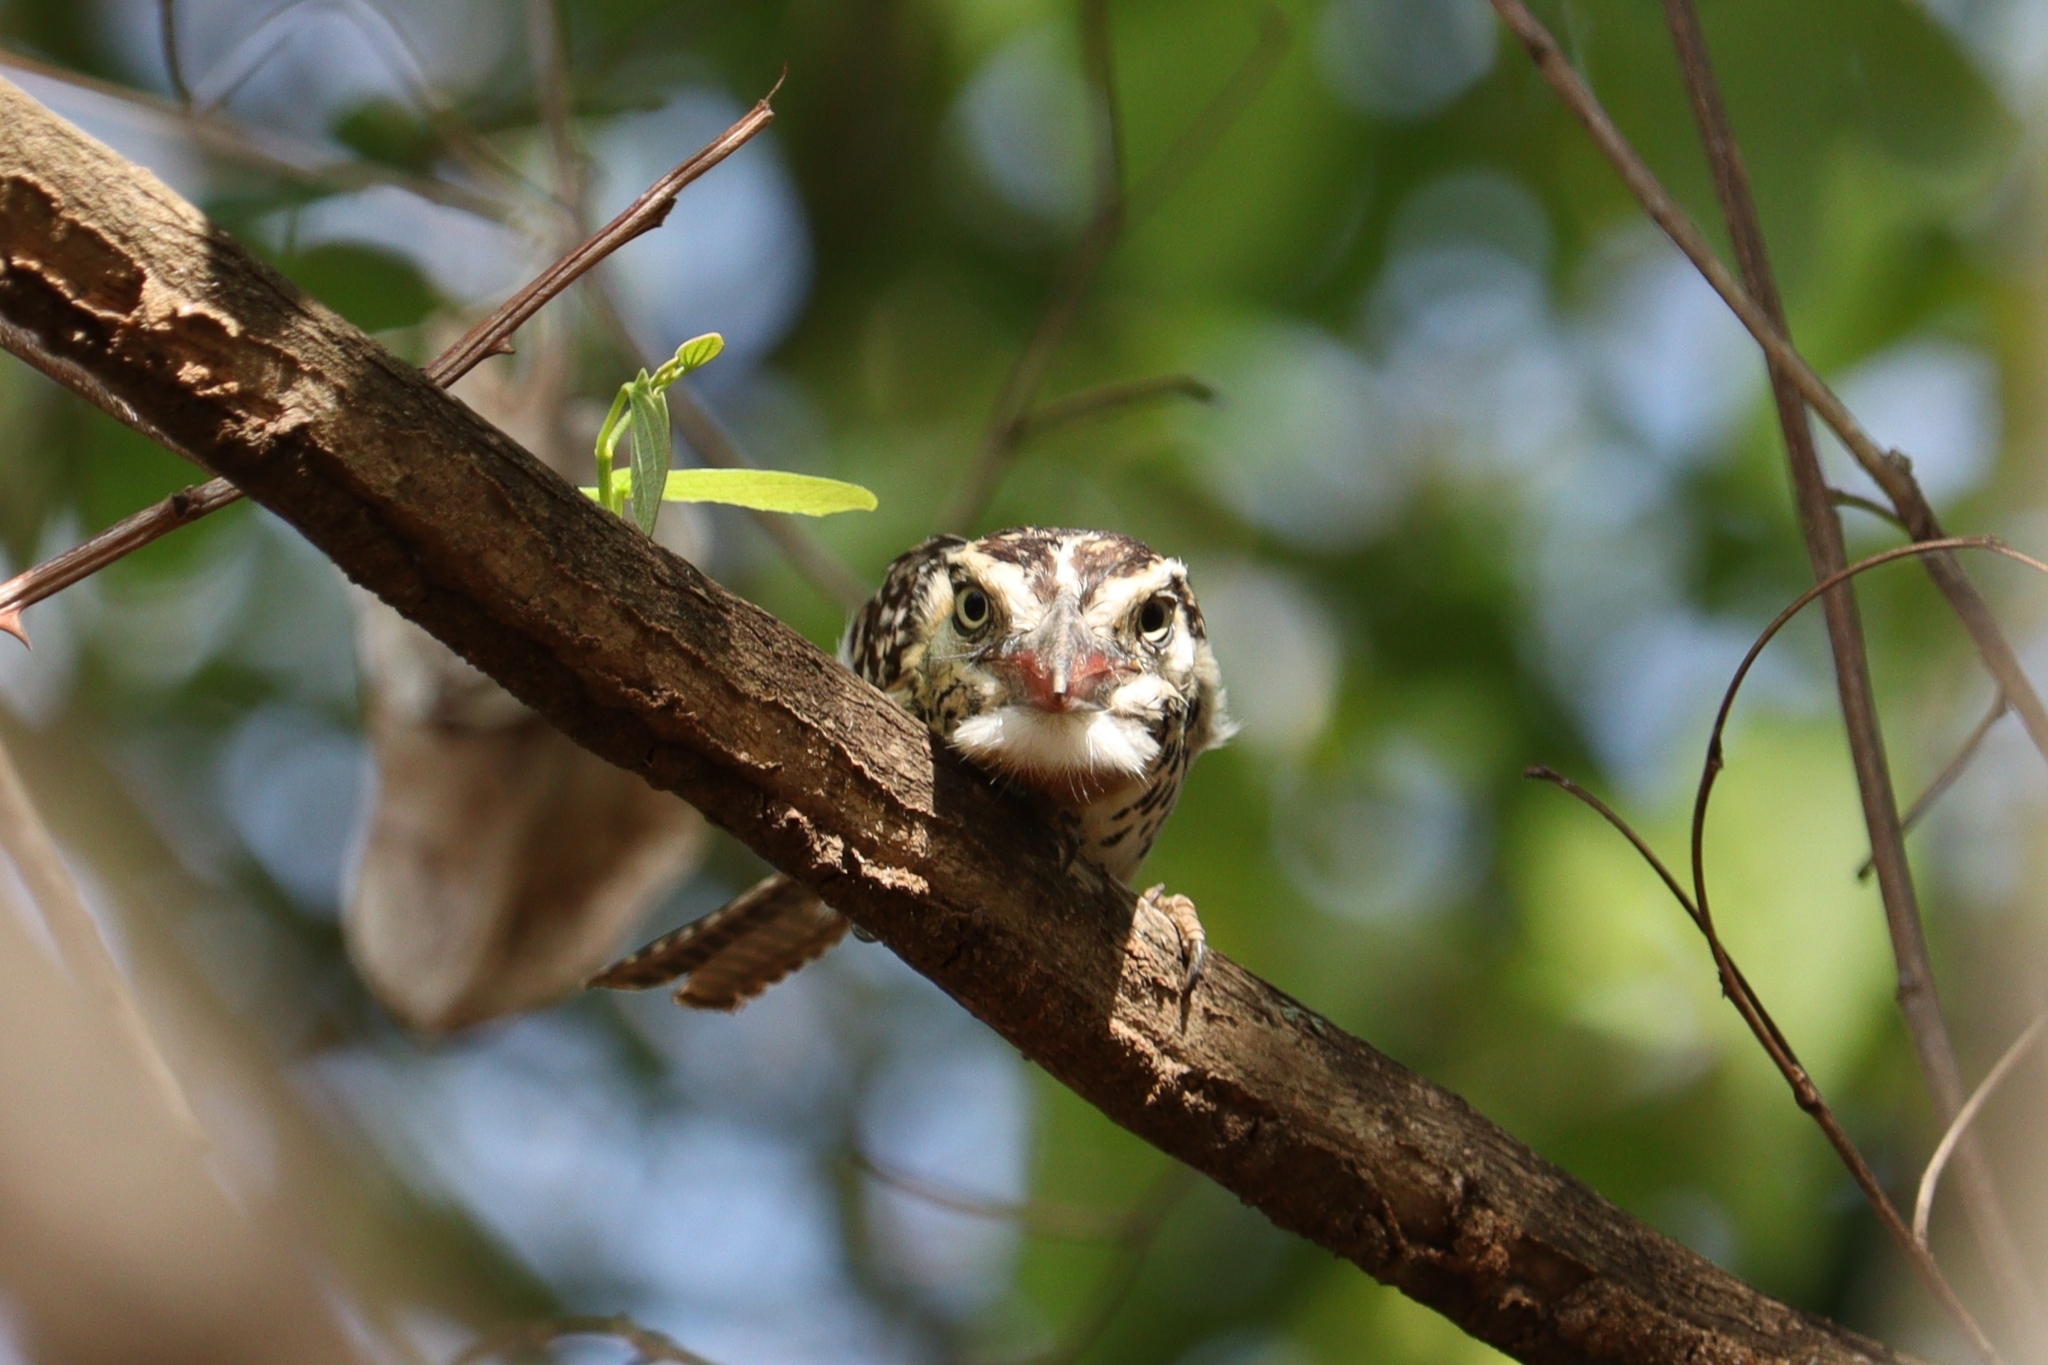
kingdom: Animalia
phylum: Chordata
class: Aves
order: Piciformes
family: Bucconidae
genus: Nystalus
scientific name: Nystalus maculatus
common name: Caatinga puffbird
